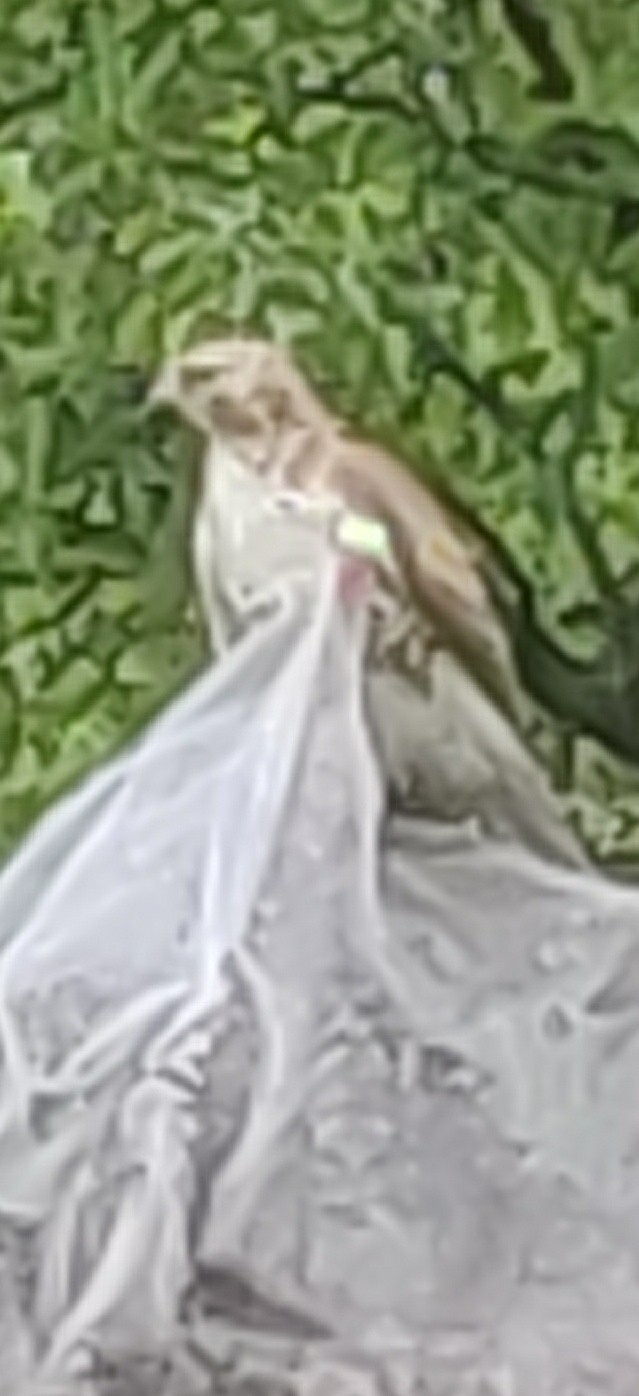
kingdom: Animalia
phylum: Chordata
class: Aves
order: Accipitriformes
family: Accipitridae
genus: Buteo
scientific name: Buteo jamaicensis
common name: Red-tailed hawk
